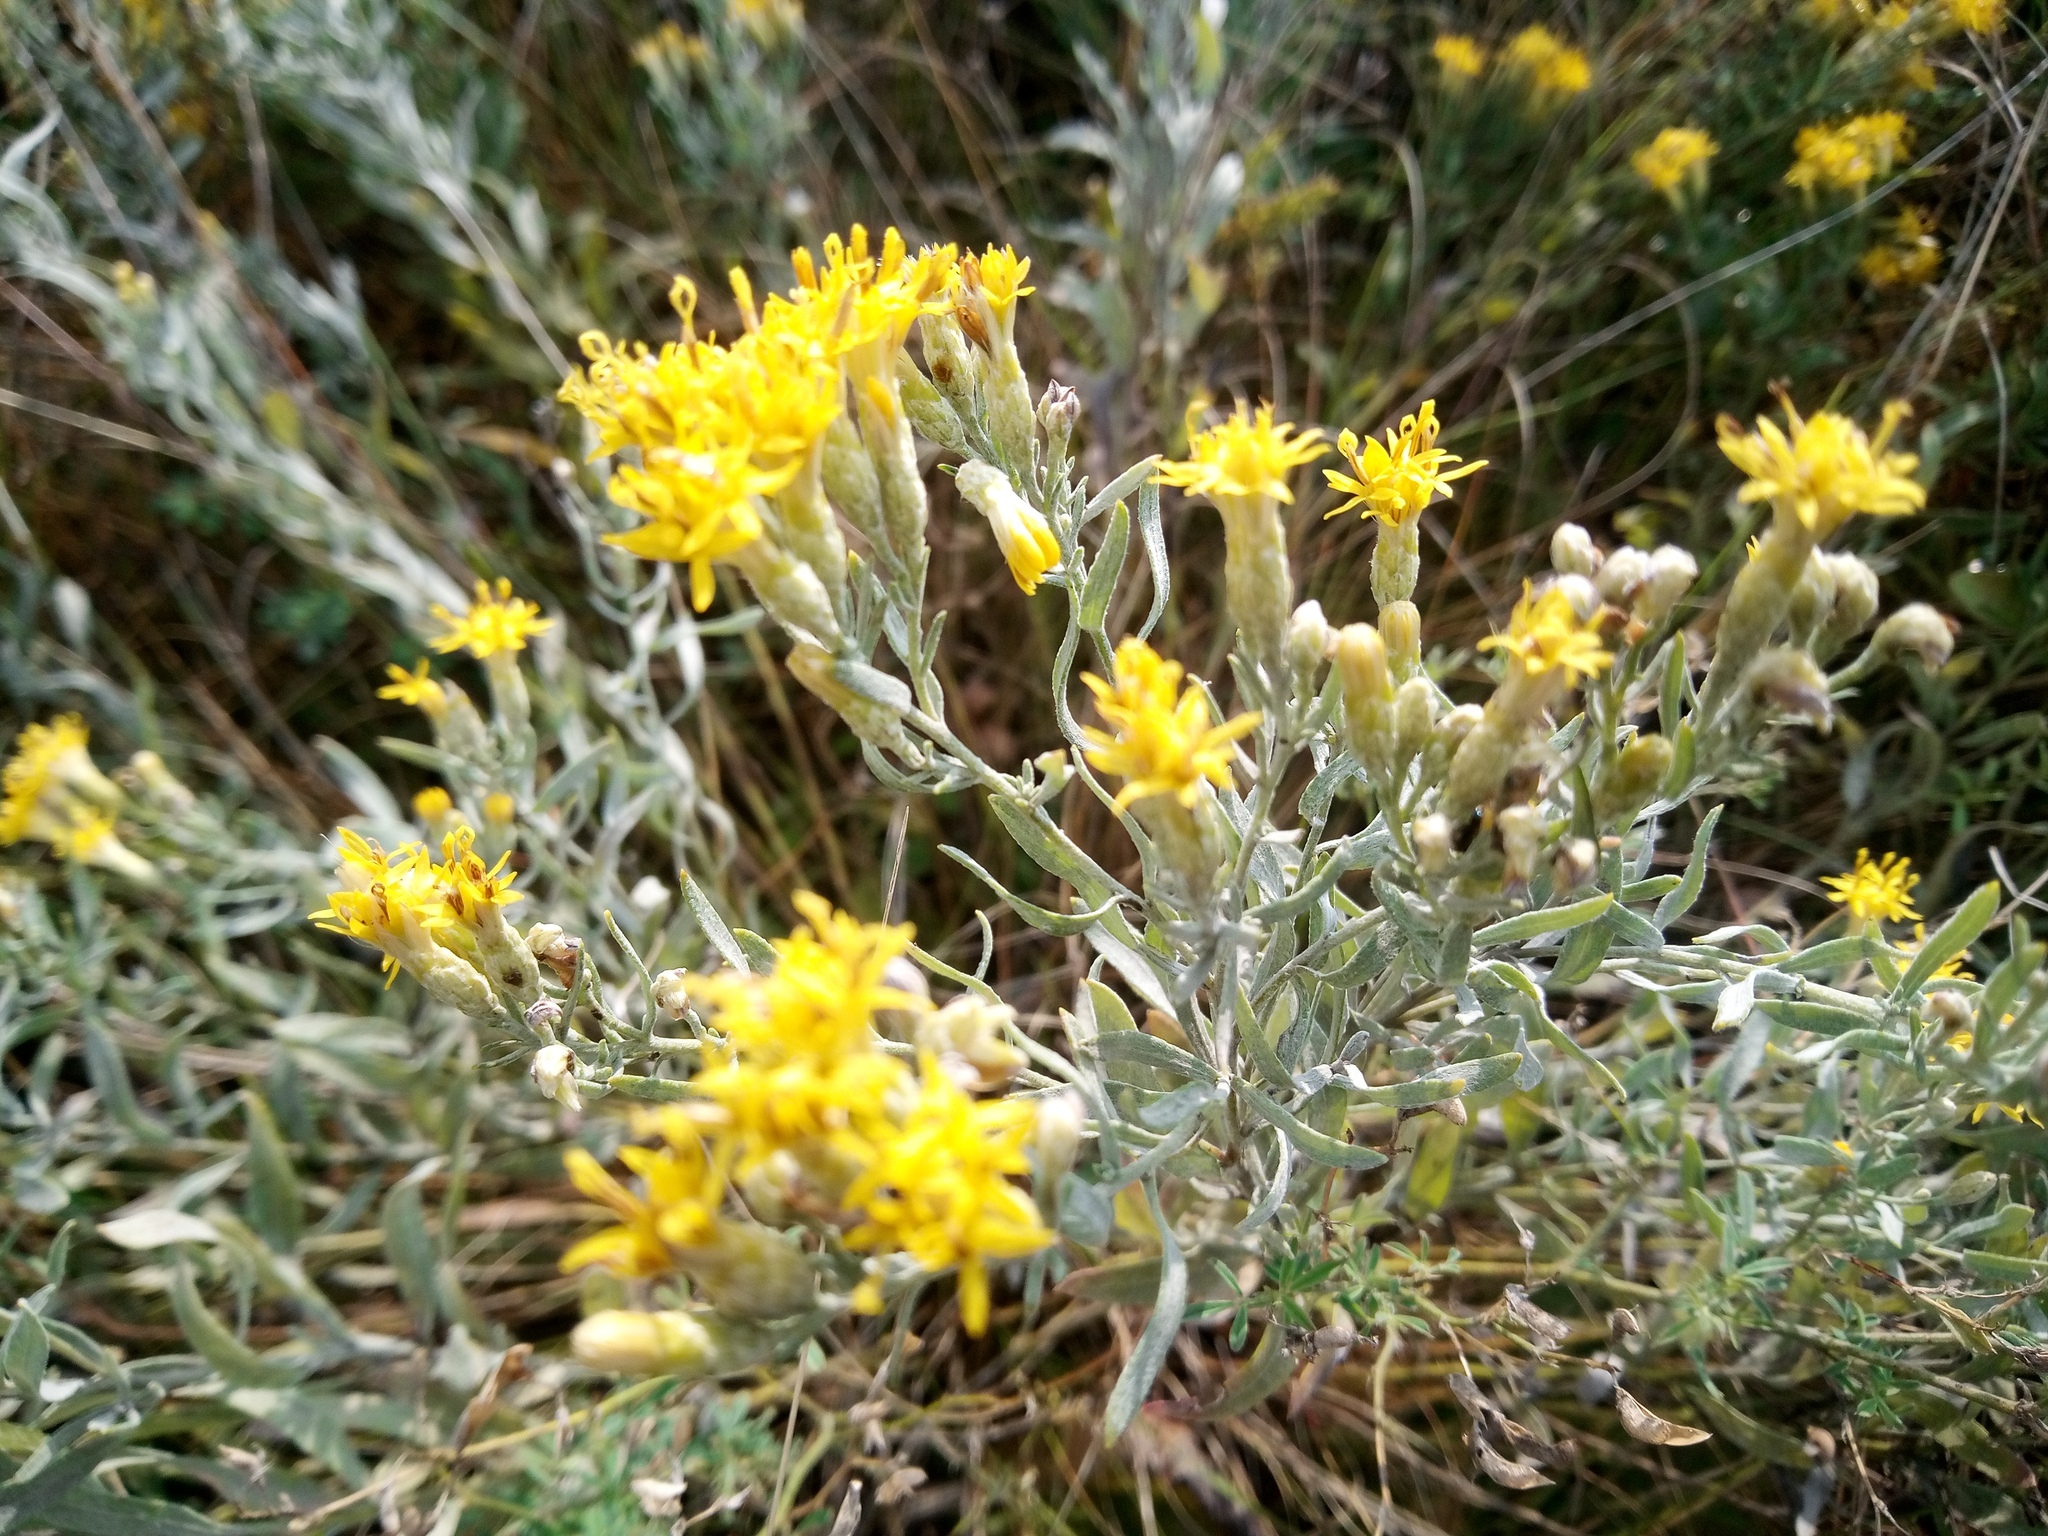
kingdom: Plantae
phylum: Tracheophyta
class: Magnoliopsida
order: Asterales
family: Asteraceae
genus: Galatella
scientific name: Galatella villosa
